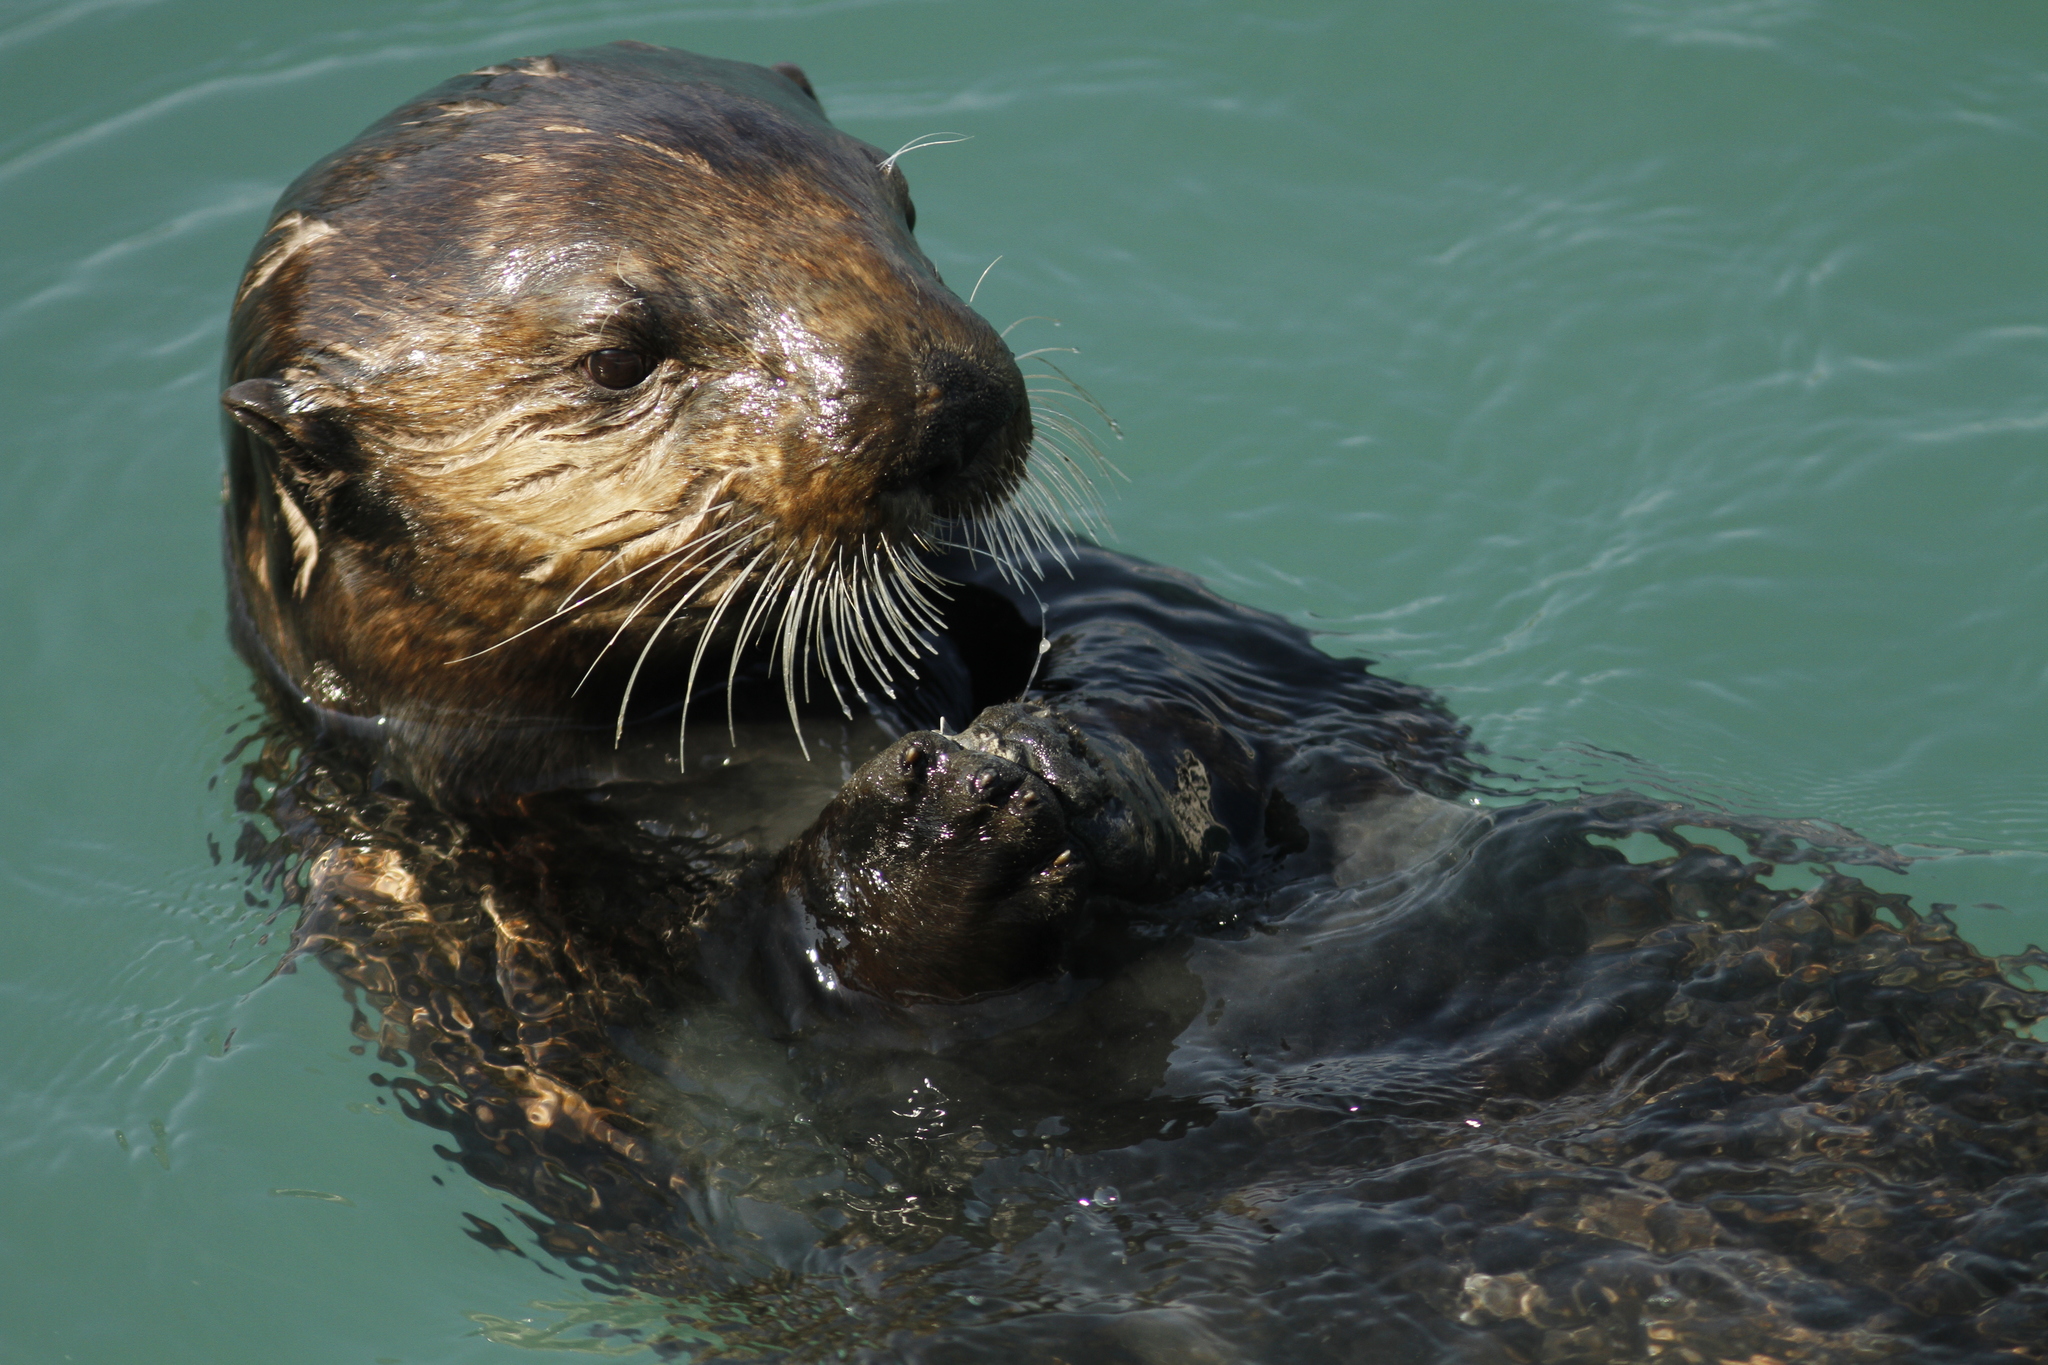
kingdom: Animalia
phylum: Chordata
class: Mammalia
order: Carnivora
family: Mustelidae
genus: Enhydra
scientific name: Enhydra lutris
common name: Sea otter
